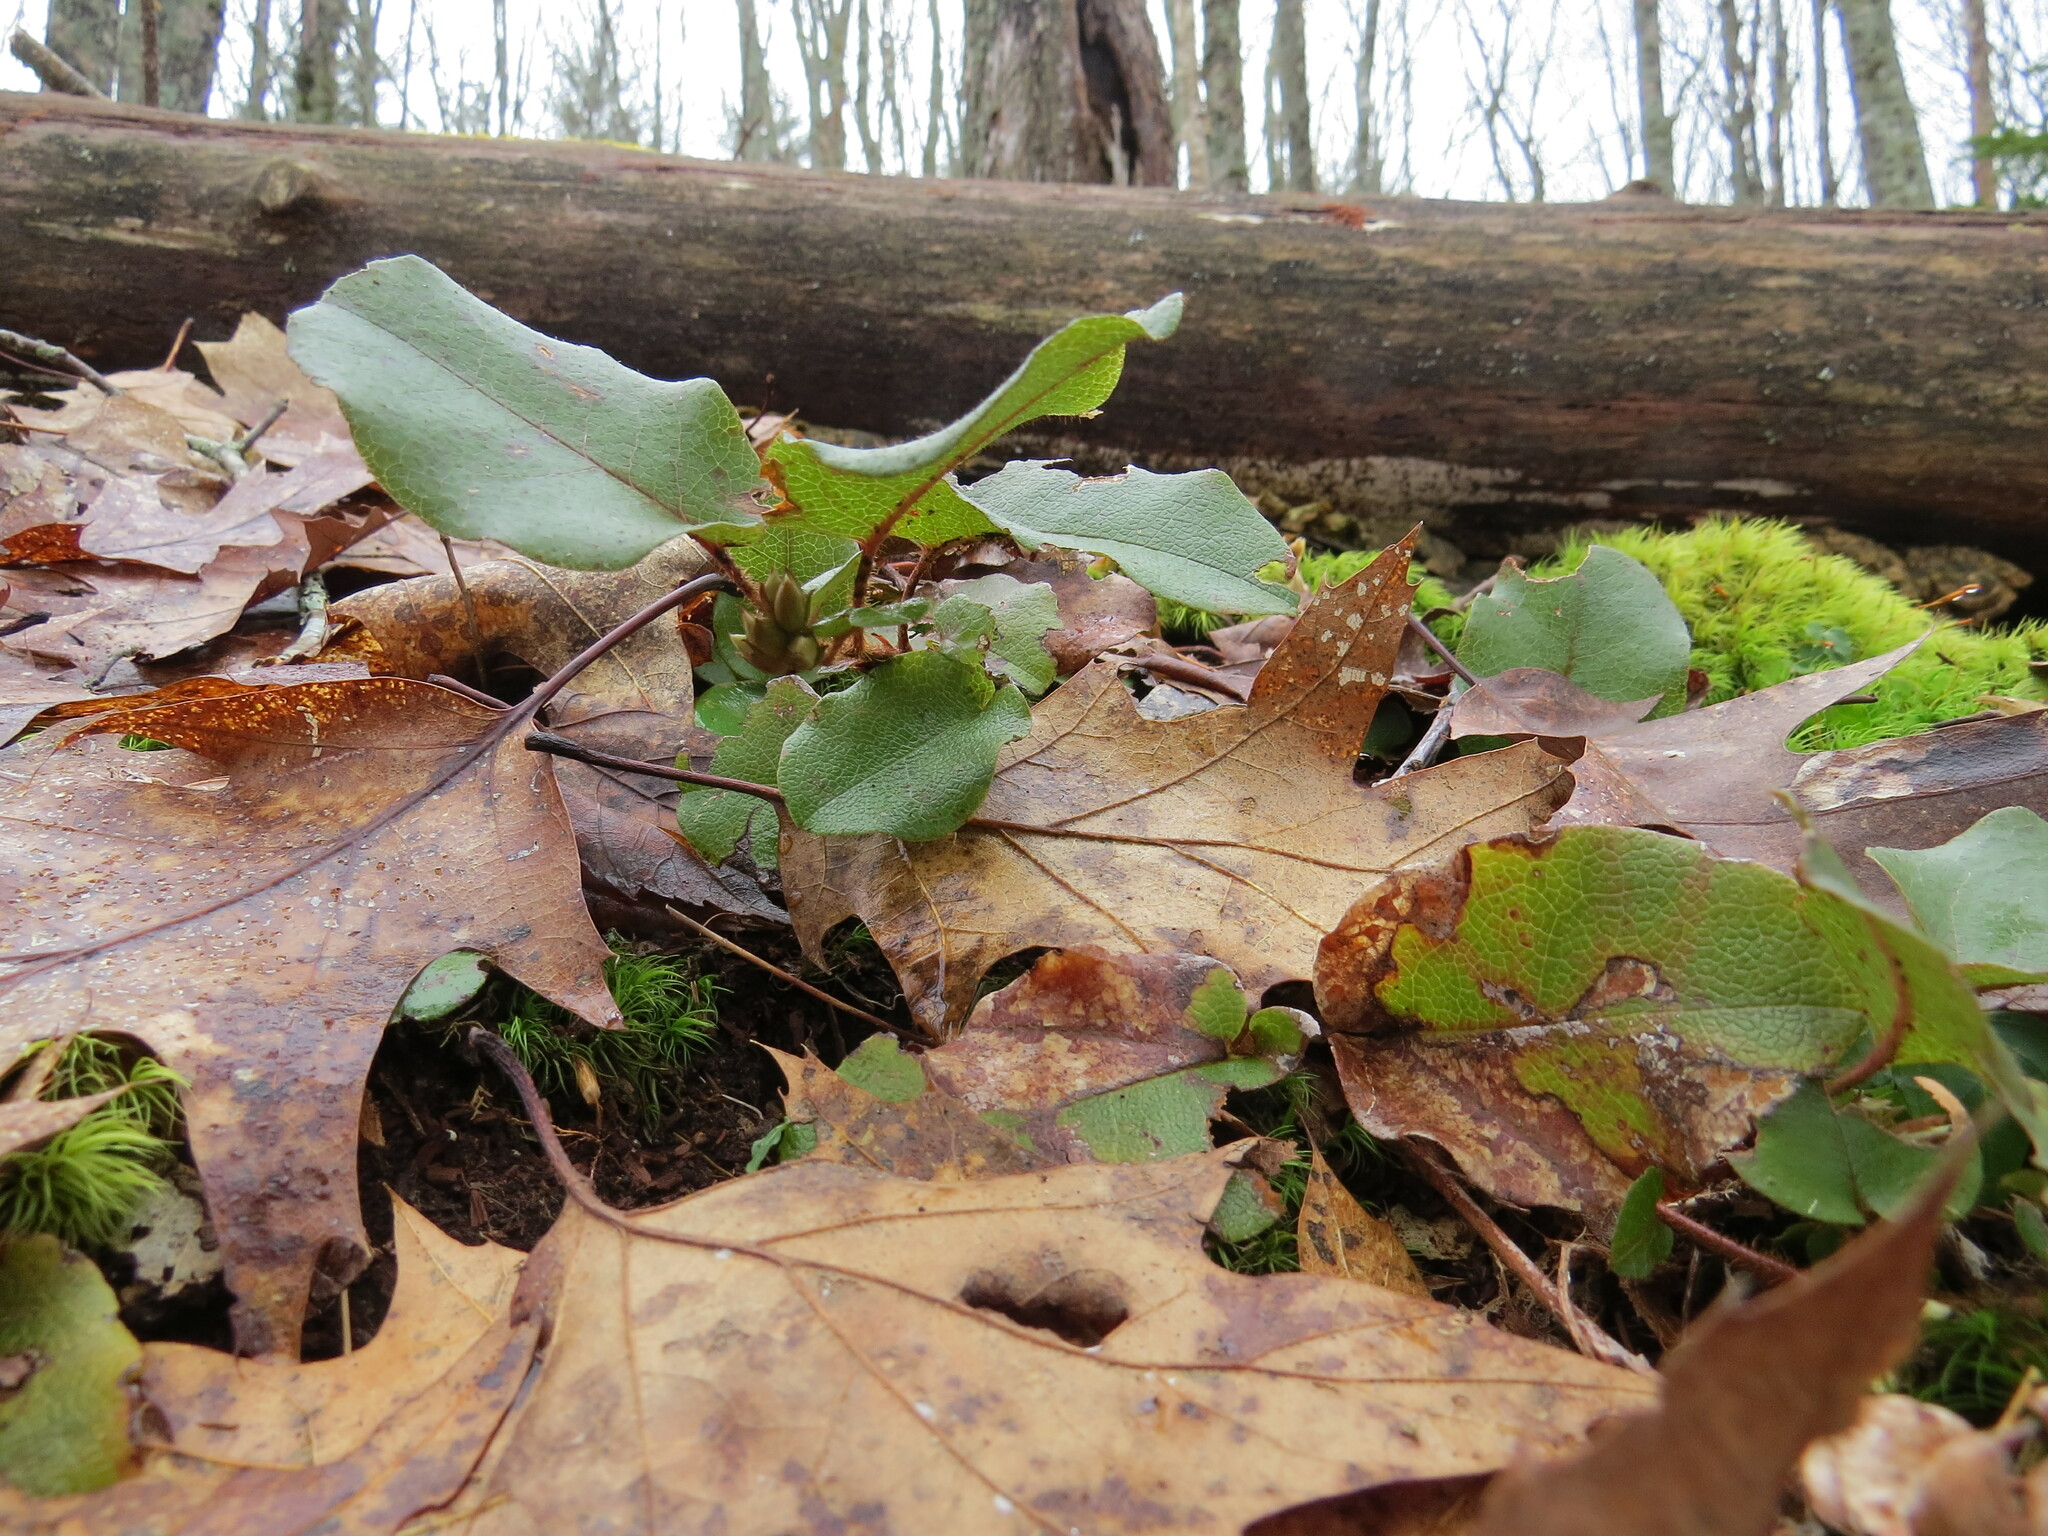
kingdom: Plantae
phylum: Tracheophyta
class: Magnoliopsida
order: Ericales
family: Ericaceae
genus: Epigaea
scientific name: Epigaea repens
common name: Gravelroot
